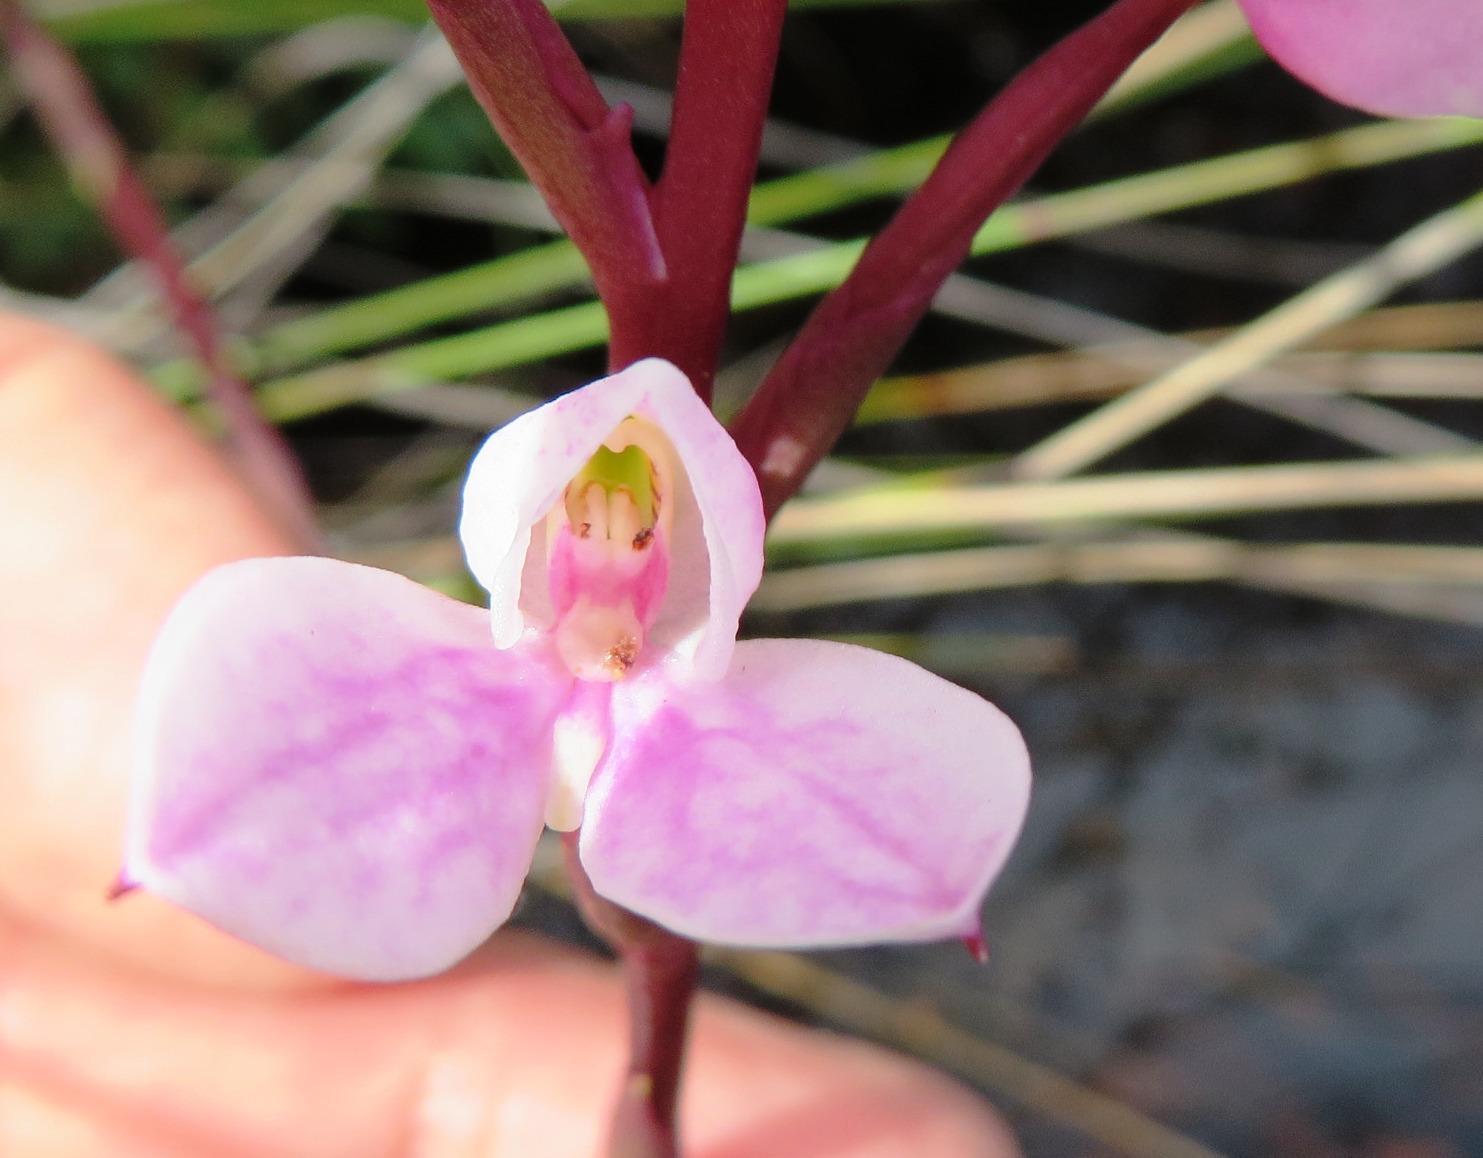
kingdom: Plantae
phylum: Tracheophyta
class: Liliopsida
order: Asparagales
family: Orchidaceae
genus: Disa
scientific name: Disa tripetaloides
